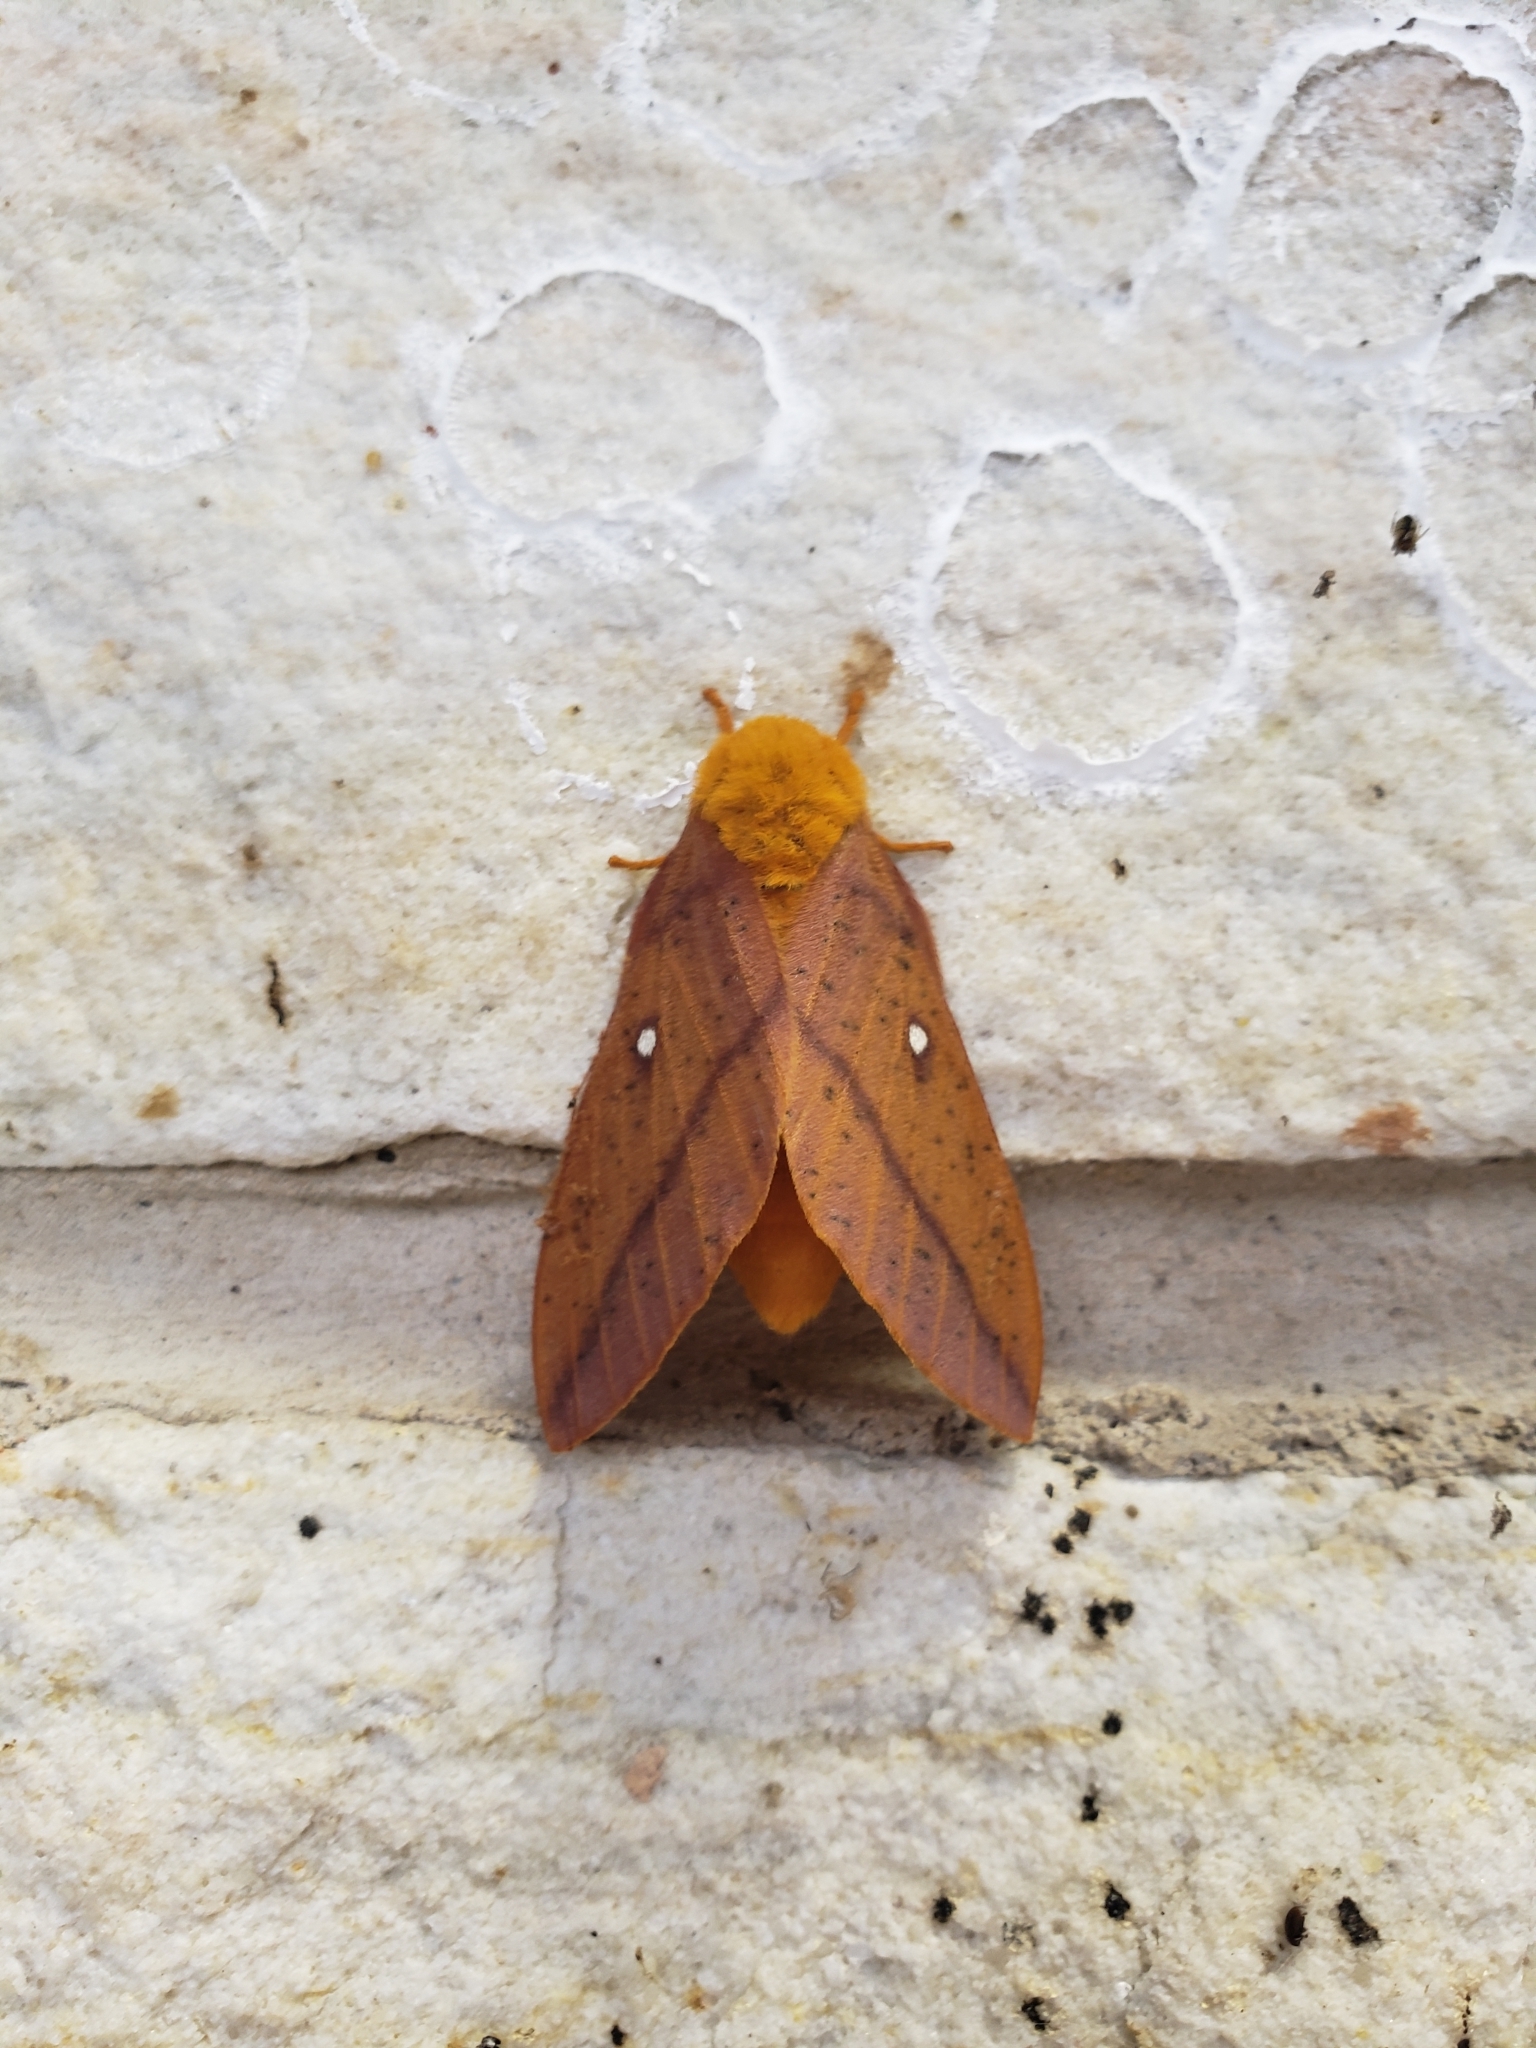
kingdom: Animalia
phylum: Arthropoda
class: Insecta
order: Lepidoptera
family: Saturniidae
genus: Anisota
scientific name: Anisota senatoria
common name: Orange-striped oakworm moth
